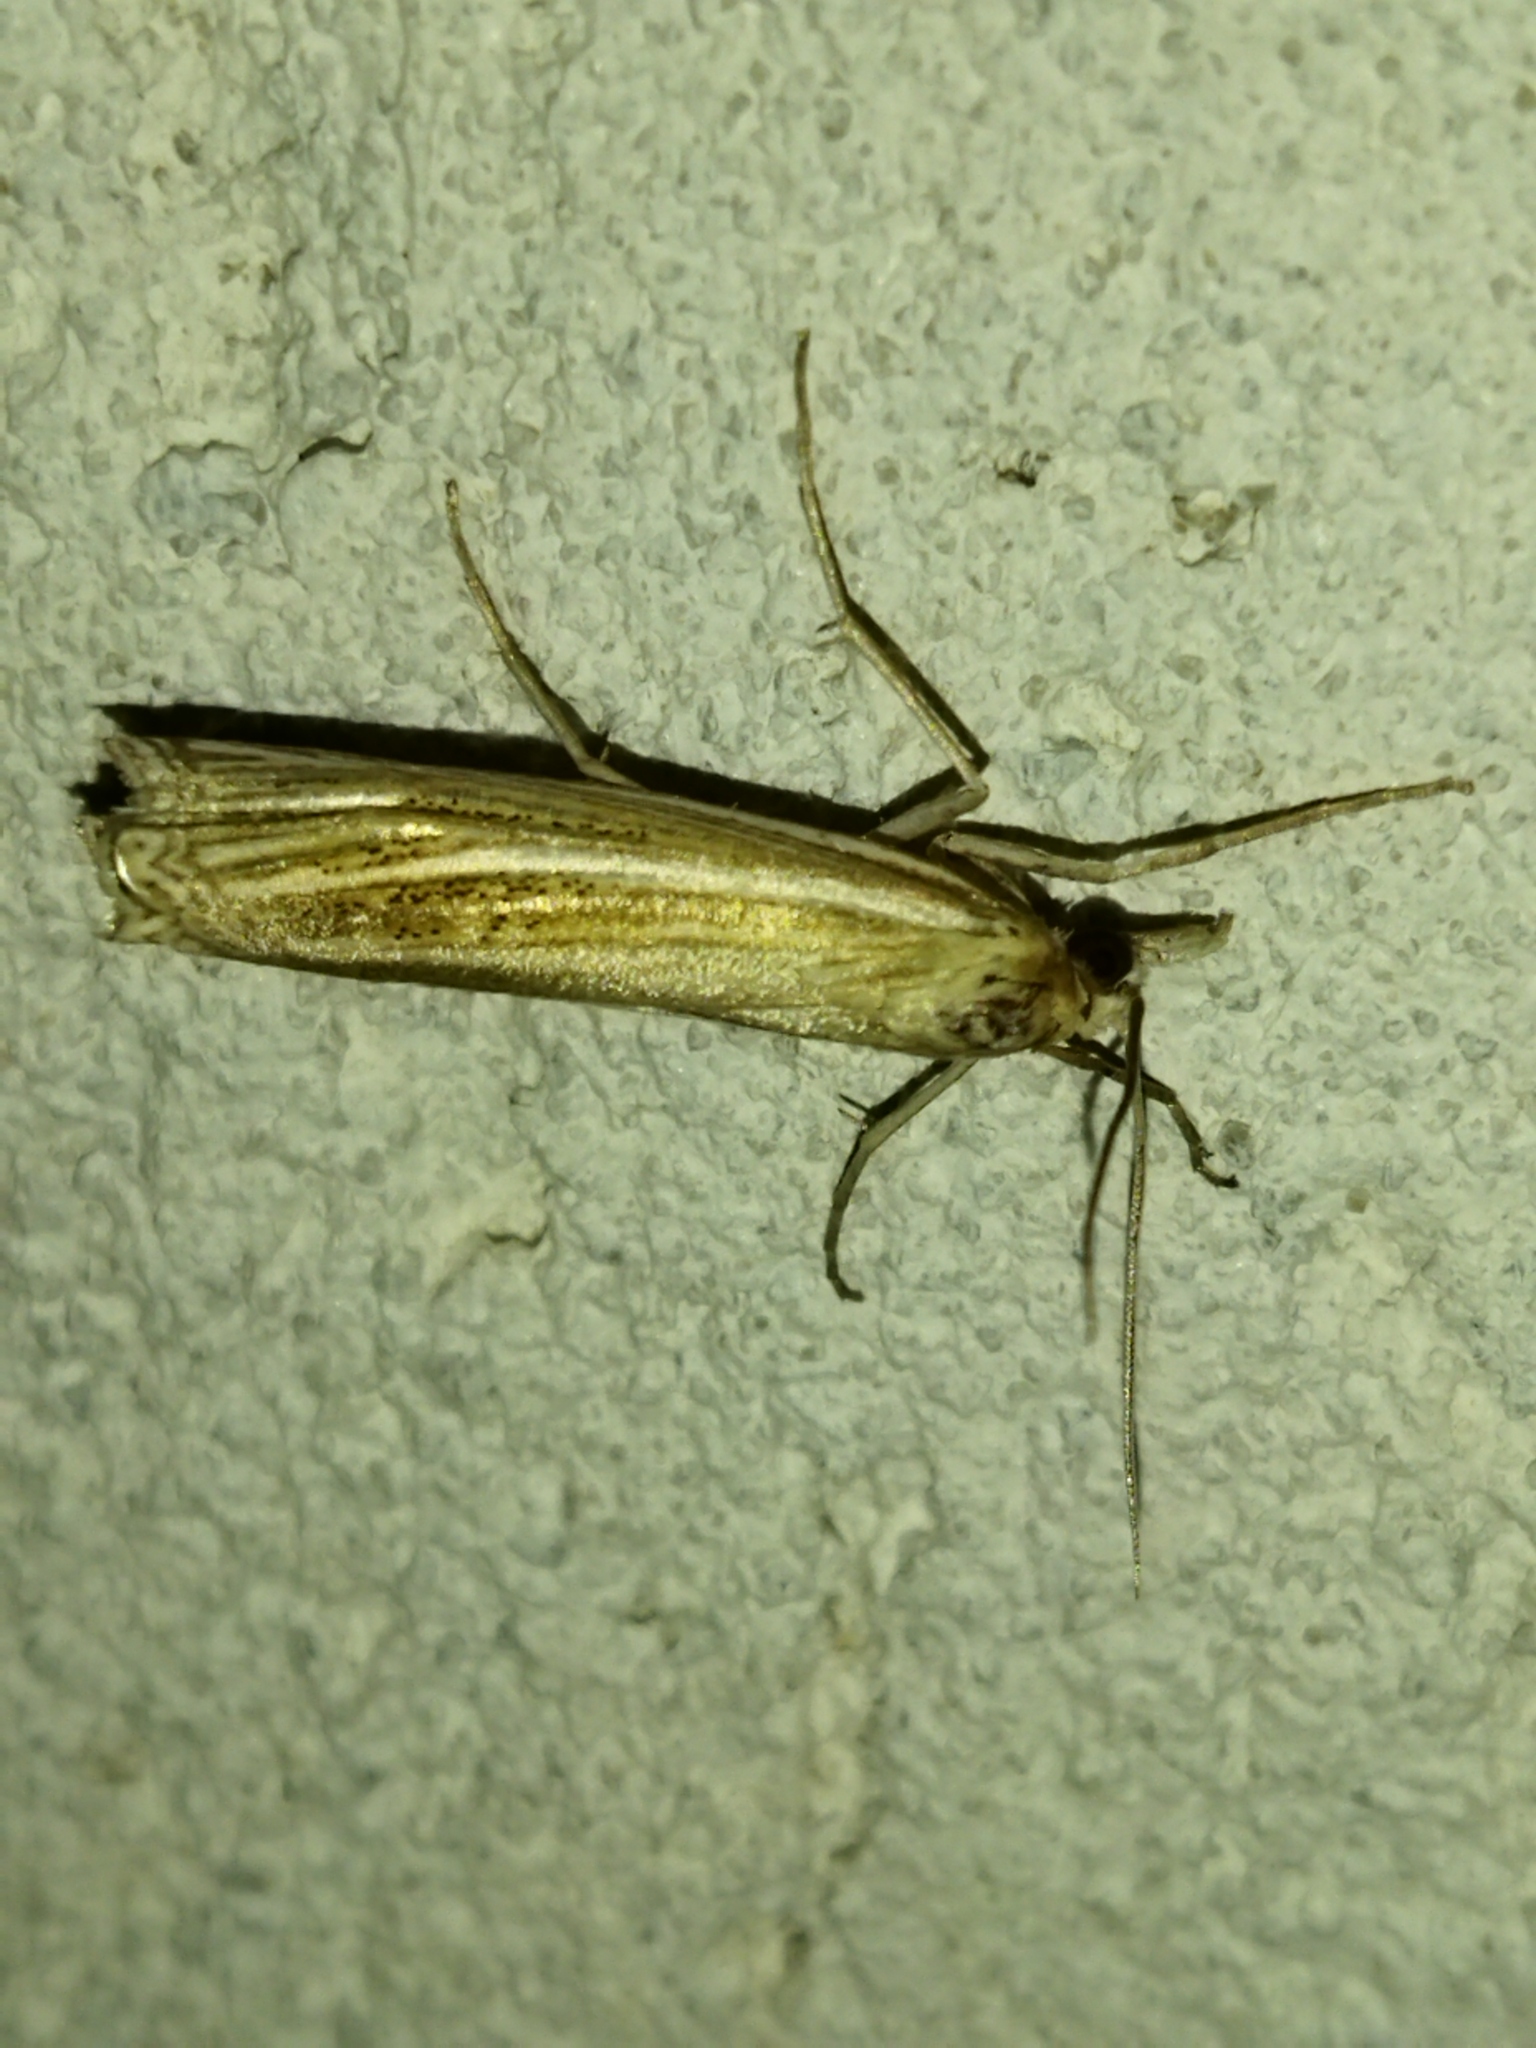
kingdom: Animalia
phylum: Arthropoda
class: Insecta
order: Lepidoptera
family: Crambidae
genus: Ancylolomia
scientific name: Ancylolomia
